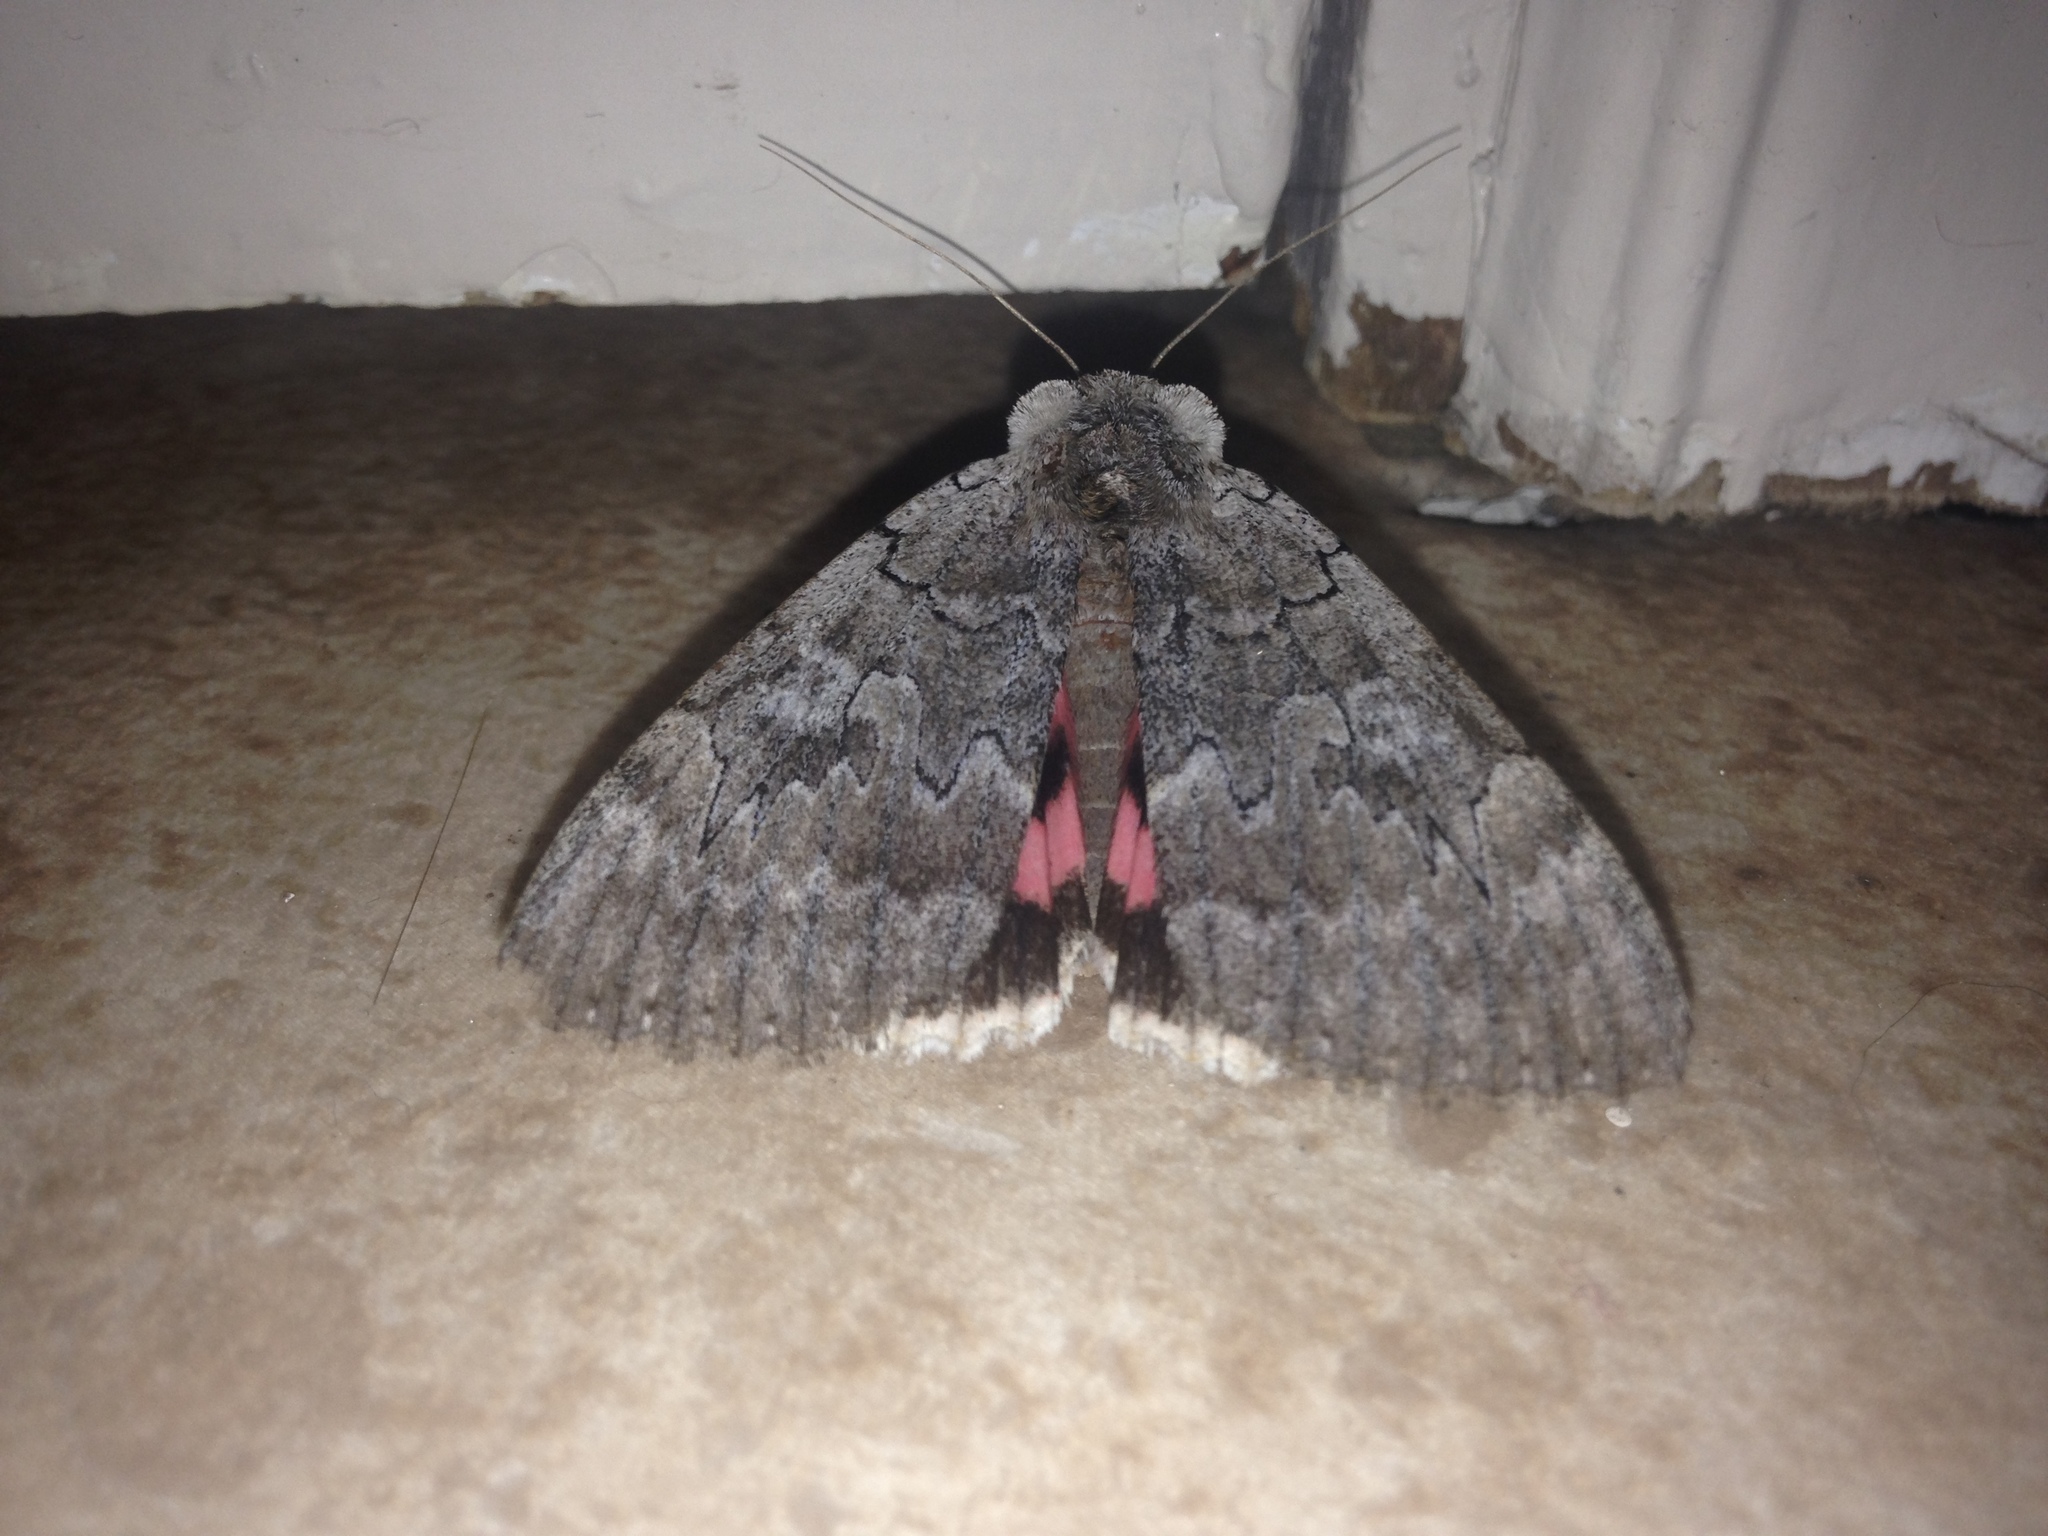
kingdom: Animalia
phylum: Arthropoda
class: Insecta
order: Lepidoptera
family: Erebidae
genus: Catocala
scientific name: Catocala concumbens
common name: Pink underwing
